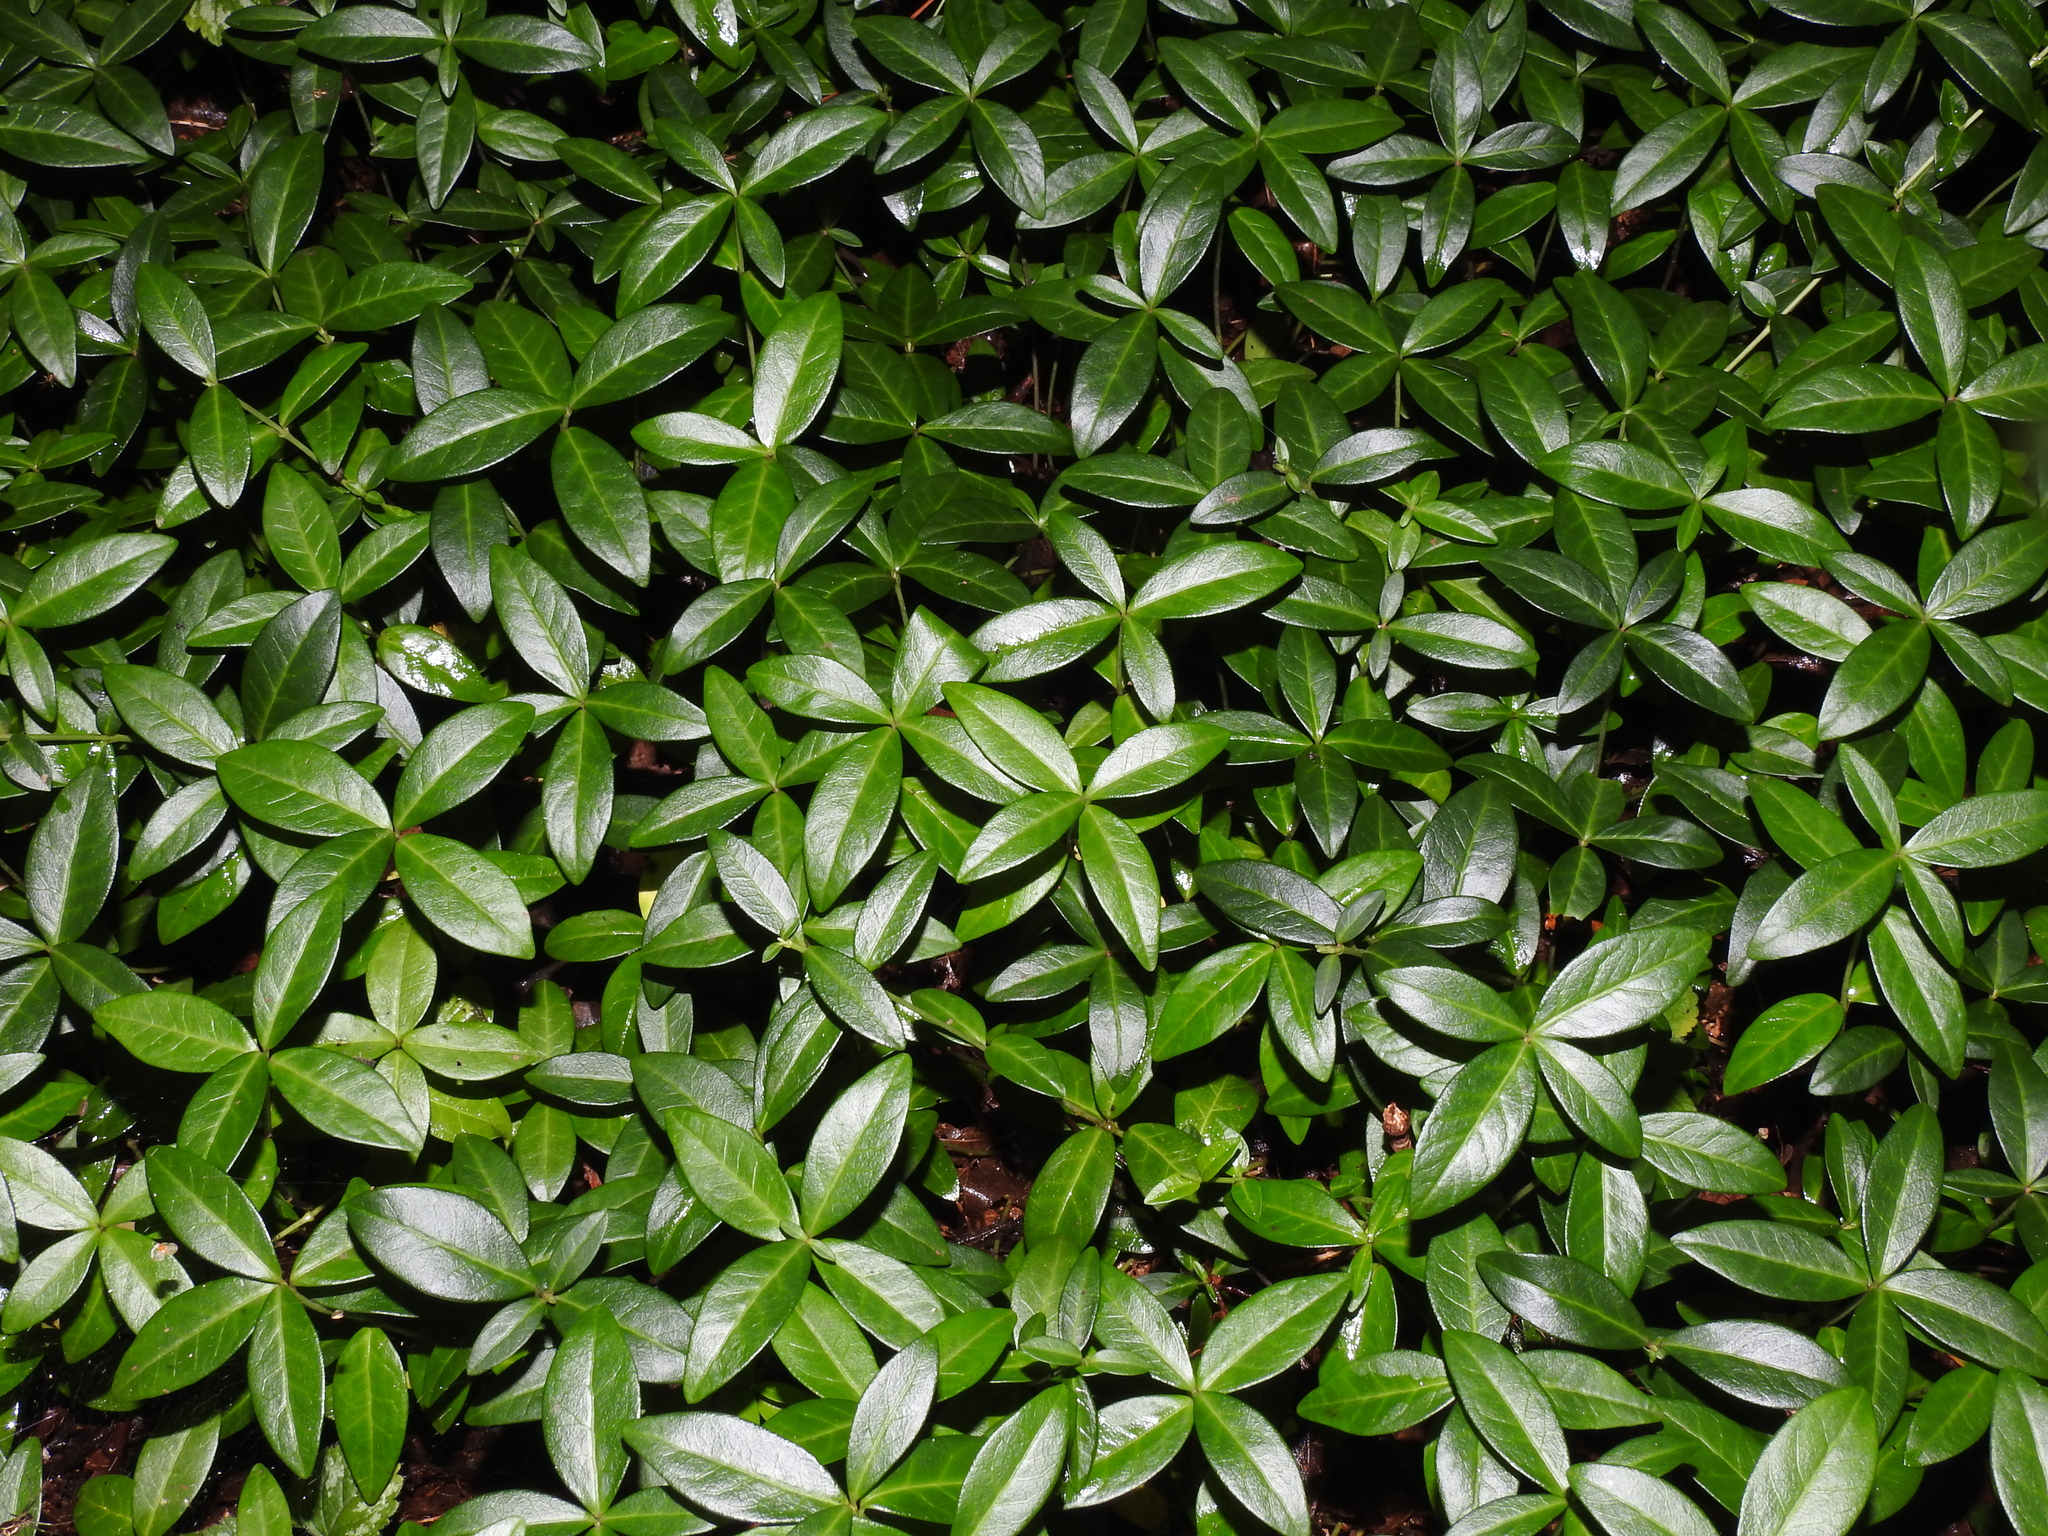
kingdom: Plantae
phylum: Tracheophyta
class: Magnoliopsida
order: Gentianales
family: Apocynaceae
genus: Vinca
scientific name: Vinca minor
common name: Lesser periwinkle
